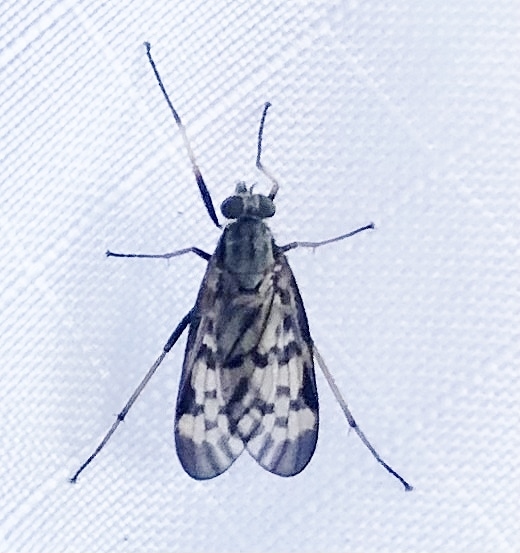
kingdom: Animalia
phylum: Arthropoda
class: Insecta
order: Diptera
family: Rhagionidae
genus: Rhagio
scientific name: Rhagio punctipennis
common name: Lesser variegated snipe fly
